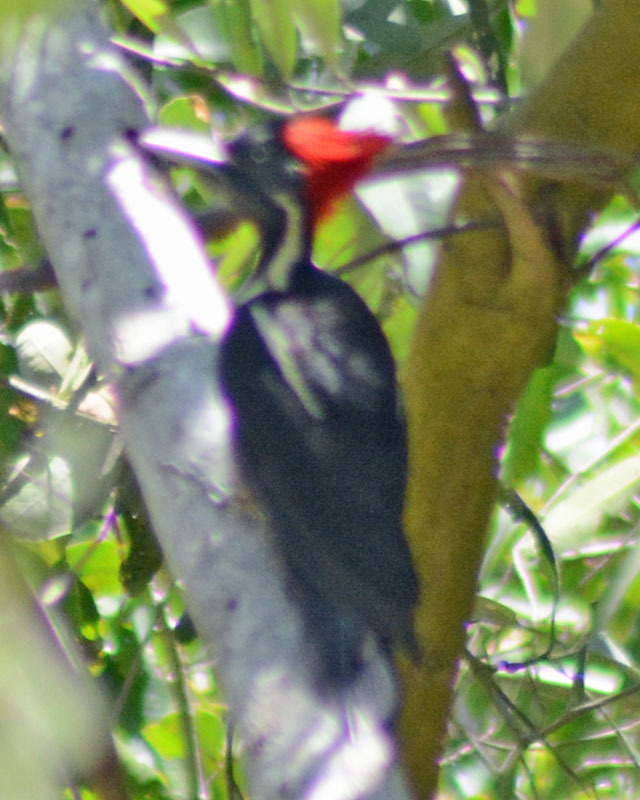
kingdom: Animalia
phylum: Chordata
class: Aves
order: Piciformes
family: Picidae
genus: Dryocopus
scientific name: Dryocopus lineatus
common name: Lineated woodpecker
